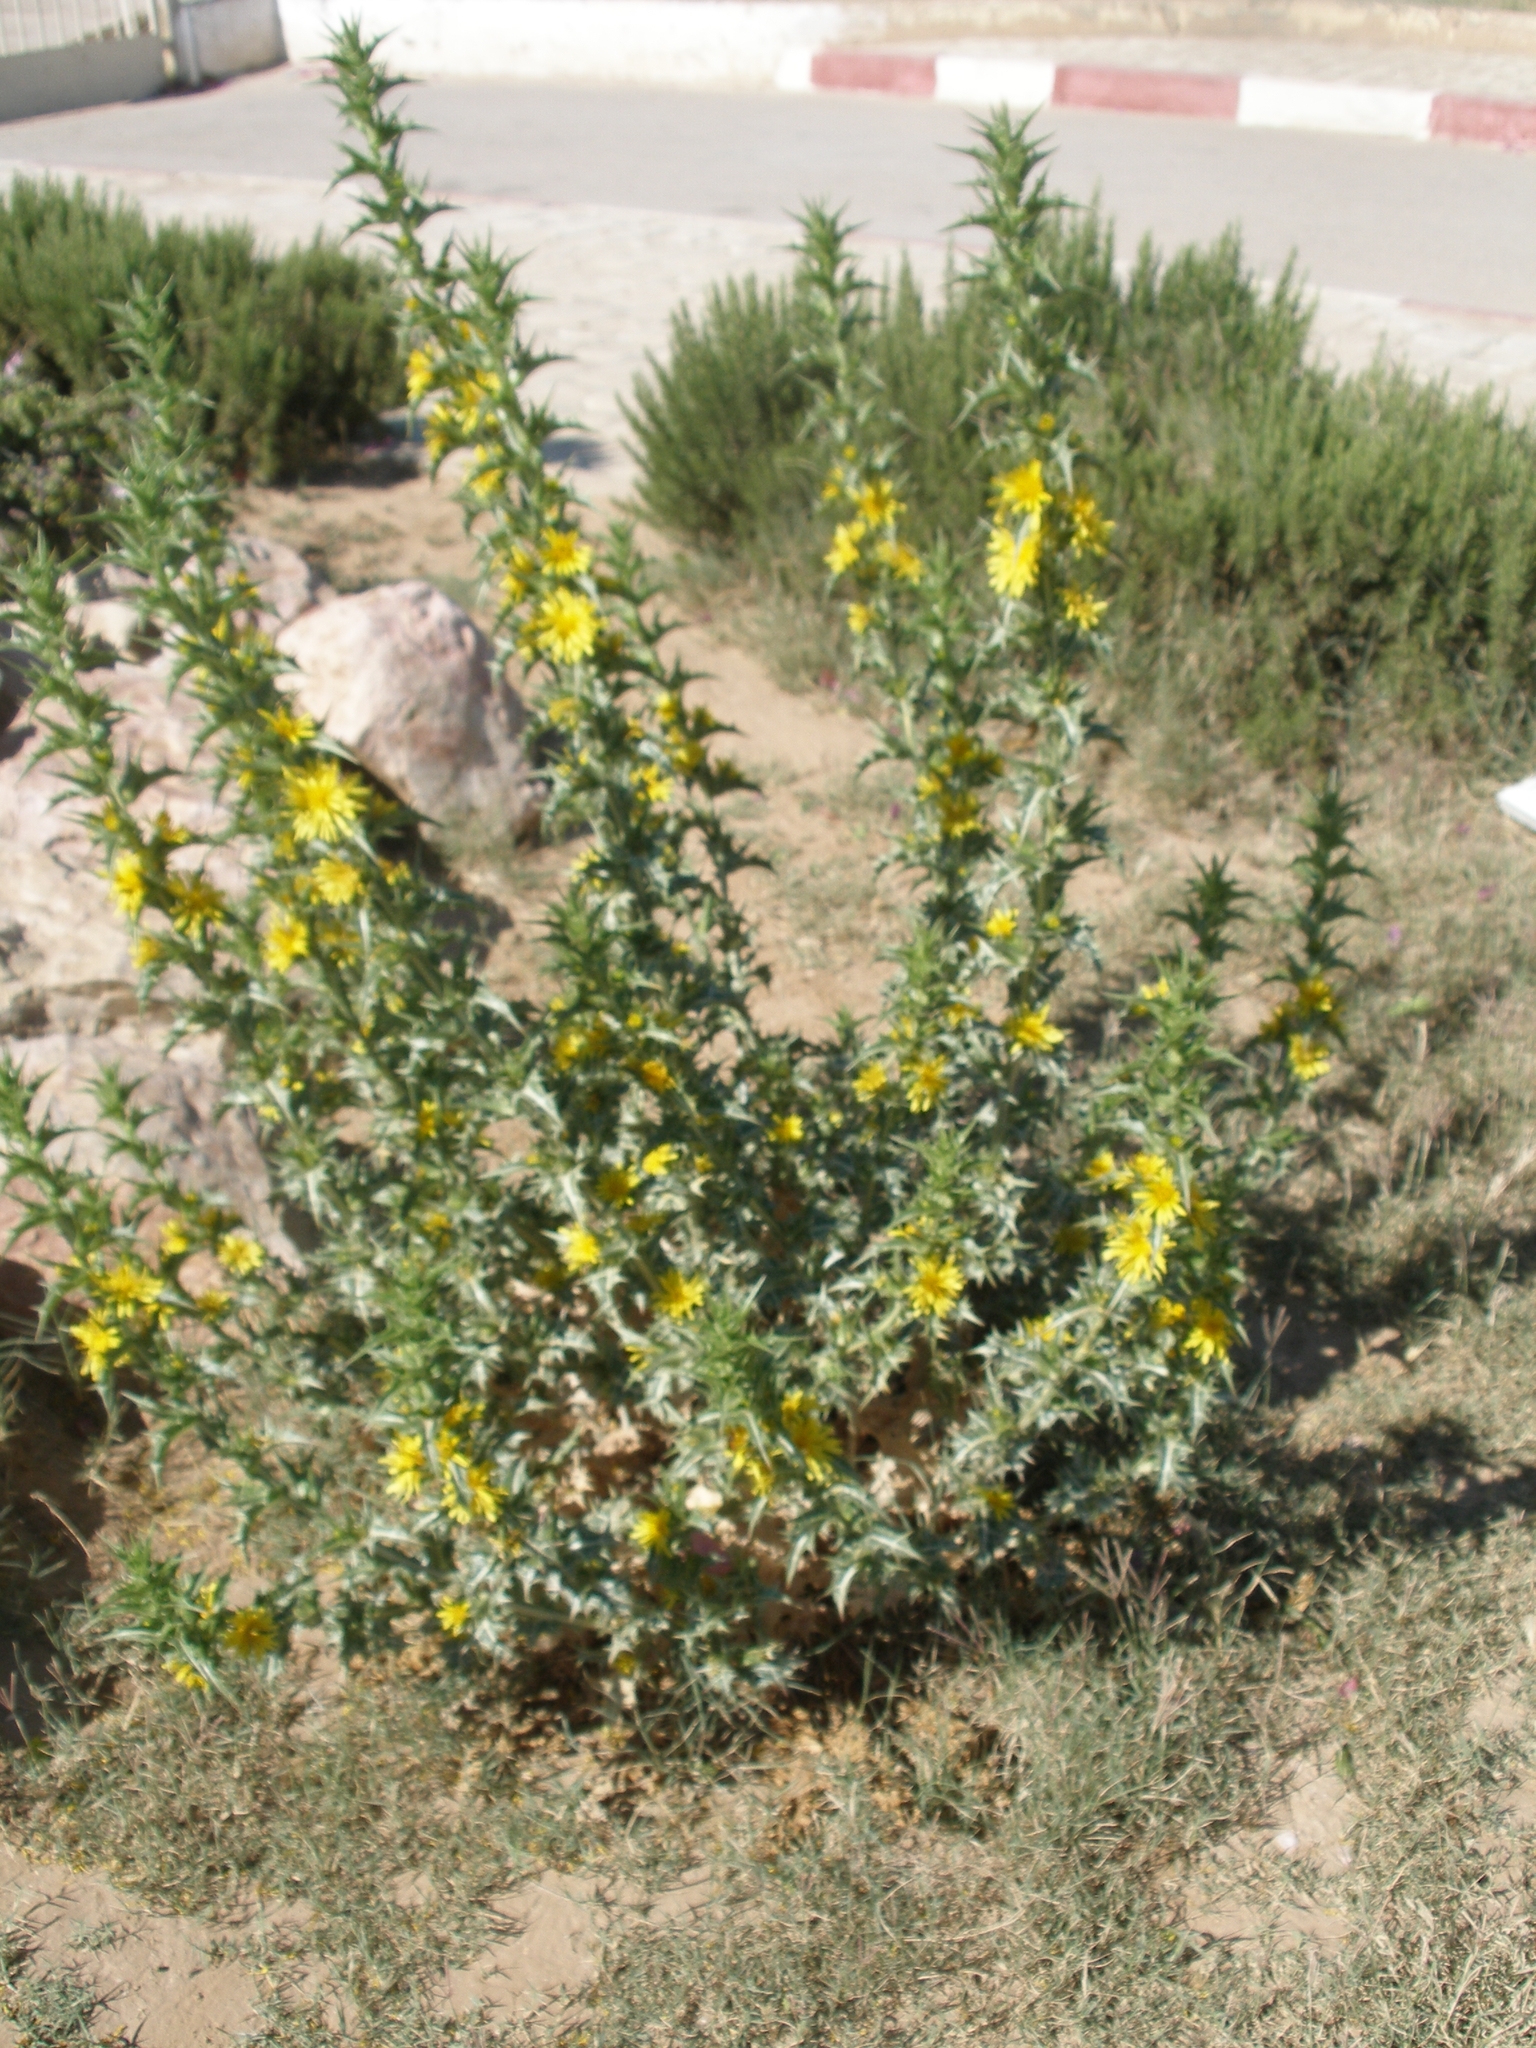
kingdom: Plantae
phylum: Tracheophyta
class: Magnoliopsida
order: Asterales
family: Asteraceae
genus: Scolymus
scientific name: Scolymus hispanicus
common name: Golden thistle
